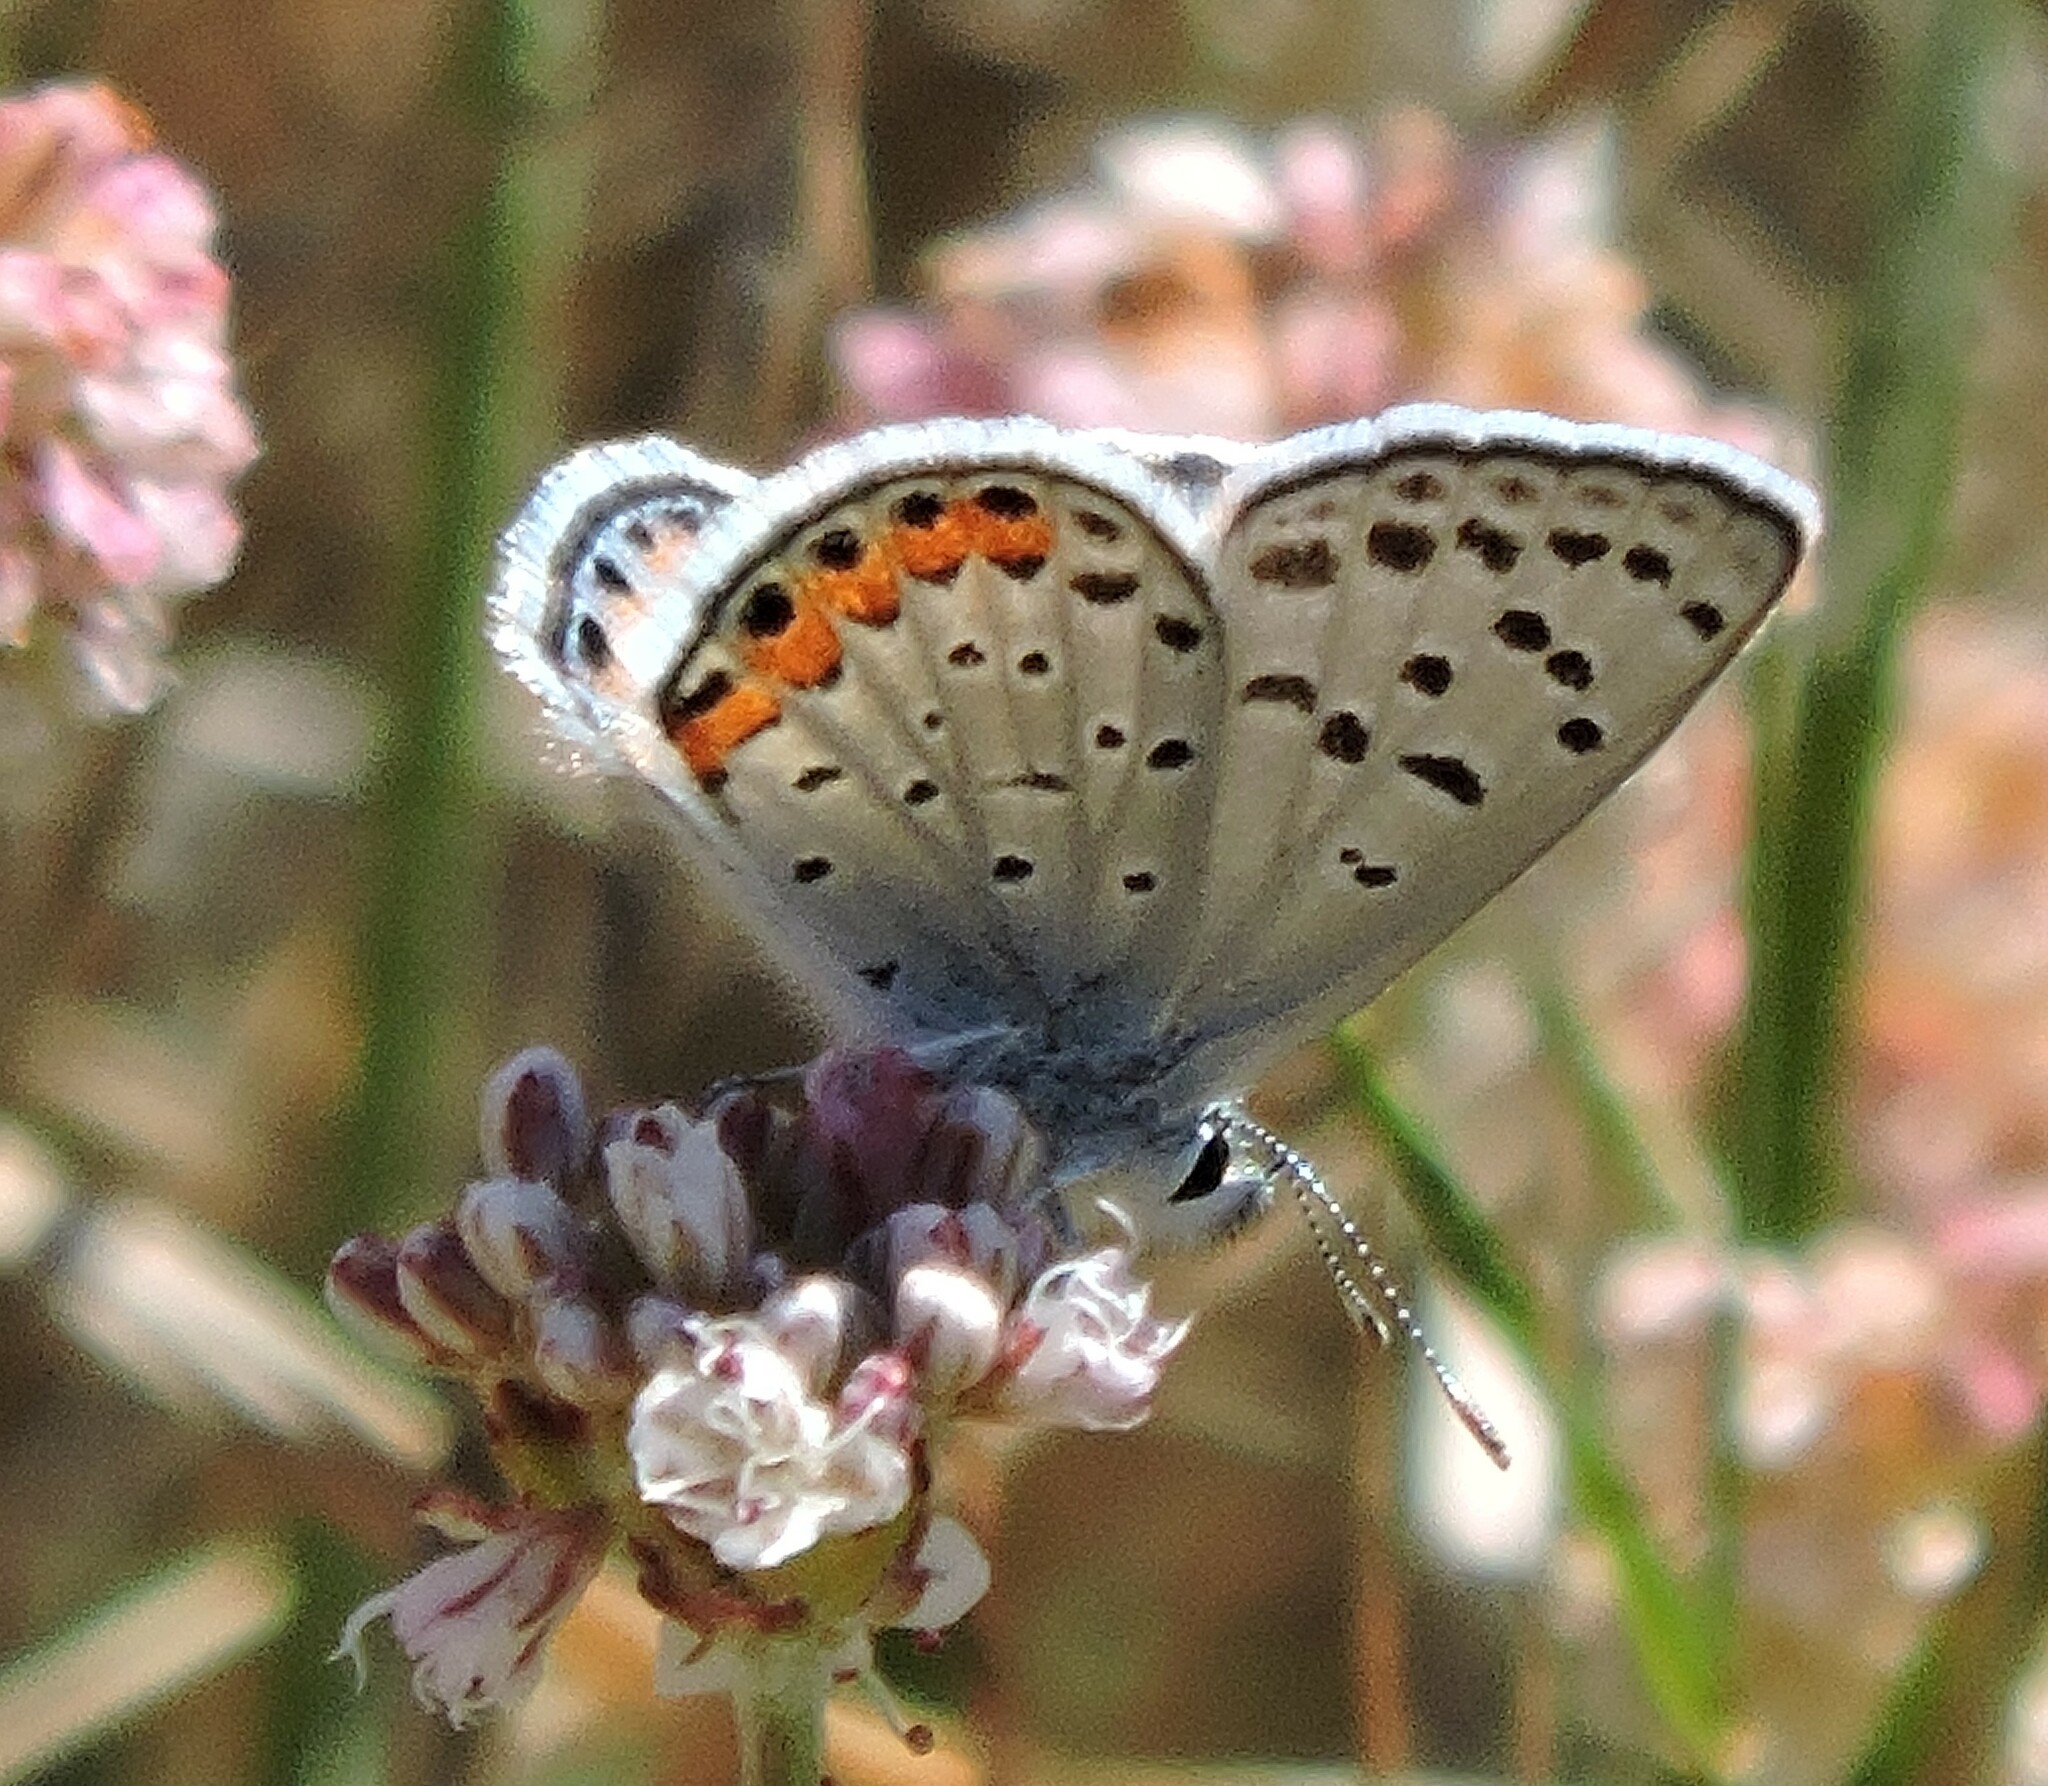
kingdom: Animalia
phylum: Arthropoda
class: Insecta
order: Lepidoptera
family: Lycaenidae
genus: Icaricia
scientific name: Icaricia acmon
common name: Acmon blue
